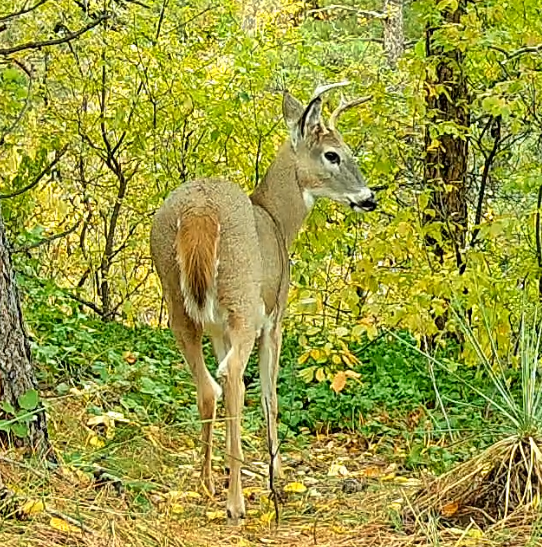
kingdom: Animalia
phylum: Chordata
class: Mammalia
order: Artiodactyla
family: Cervidae
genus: Odocoileus
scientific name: Odocoileus virginianus
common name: White-tailed deer
